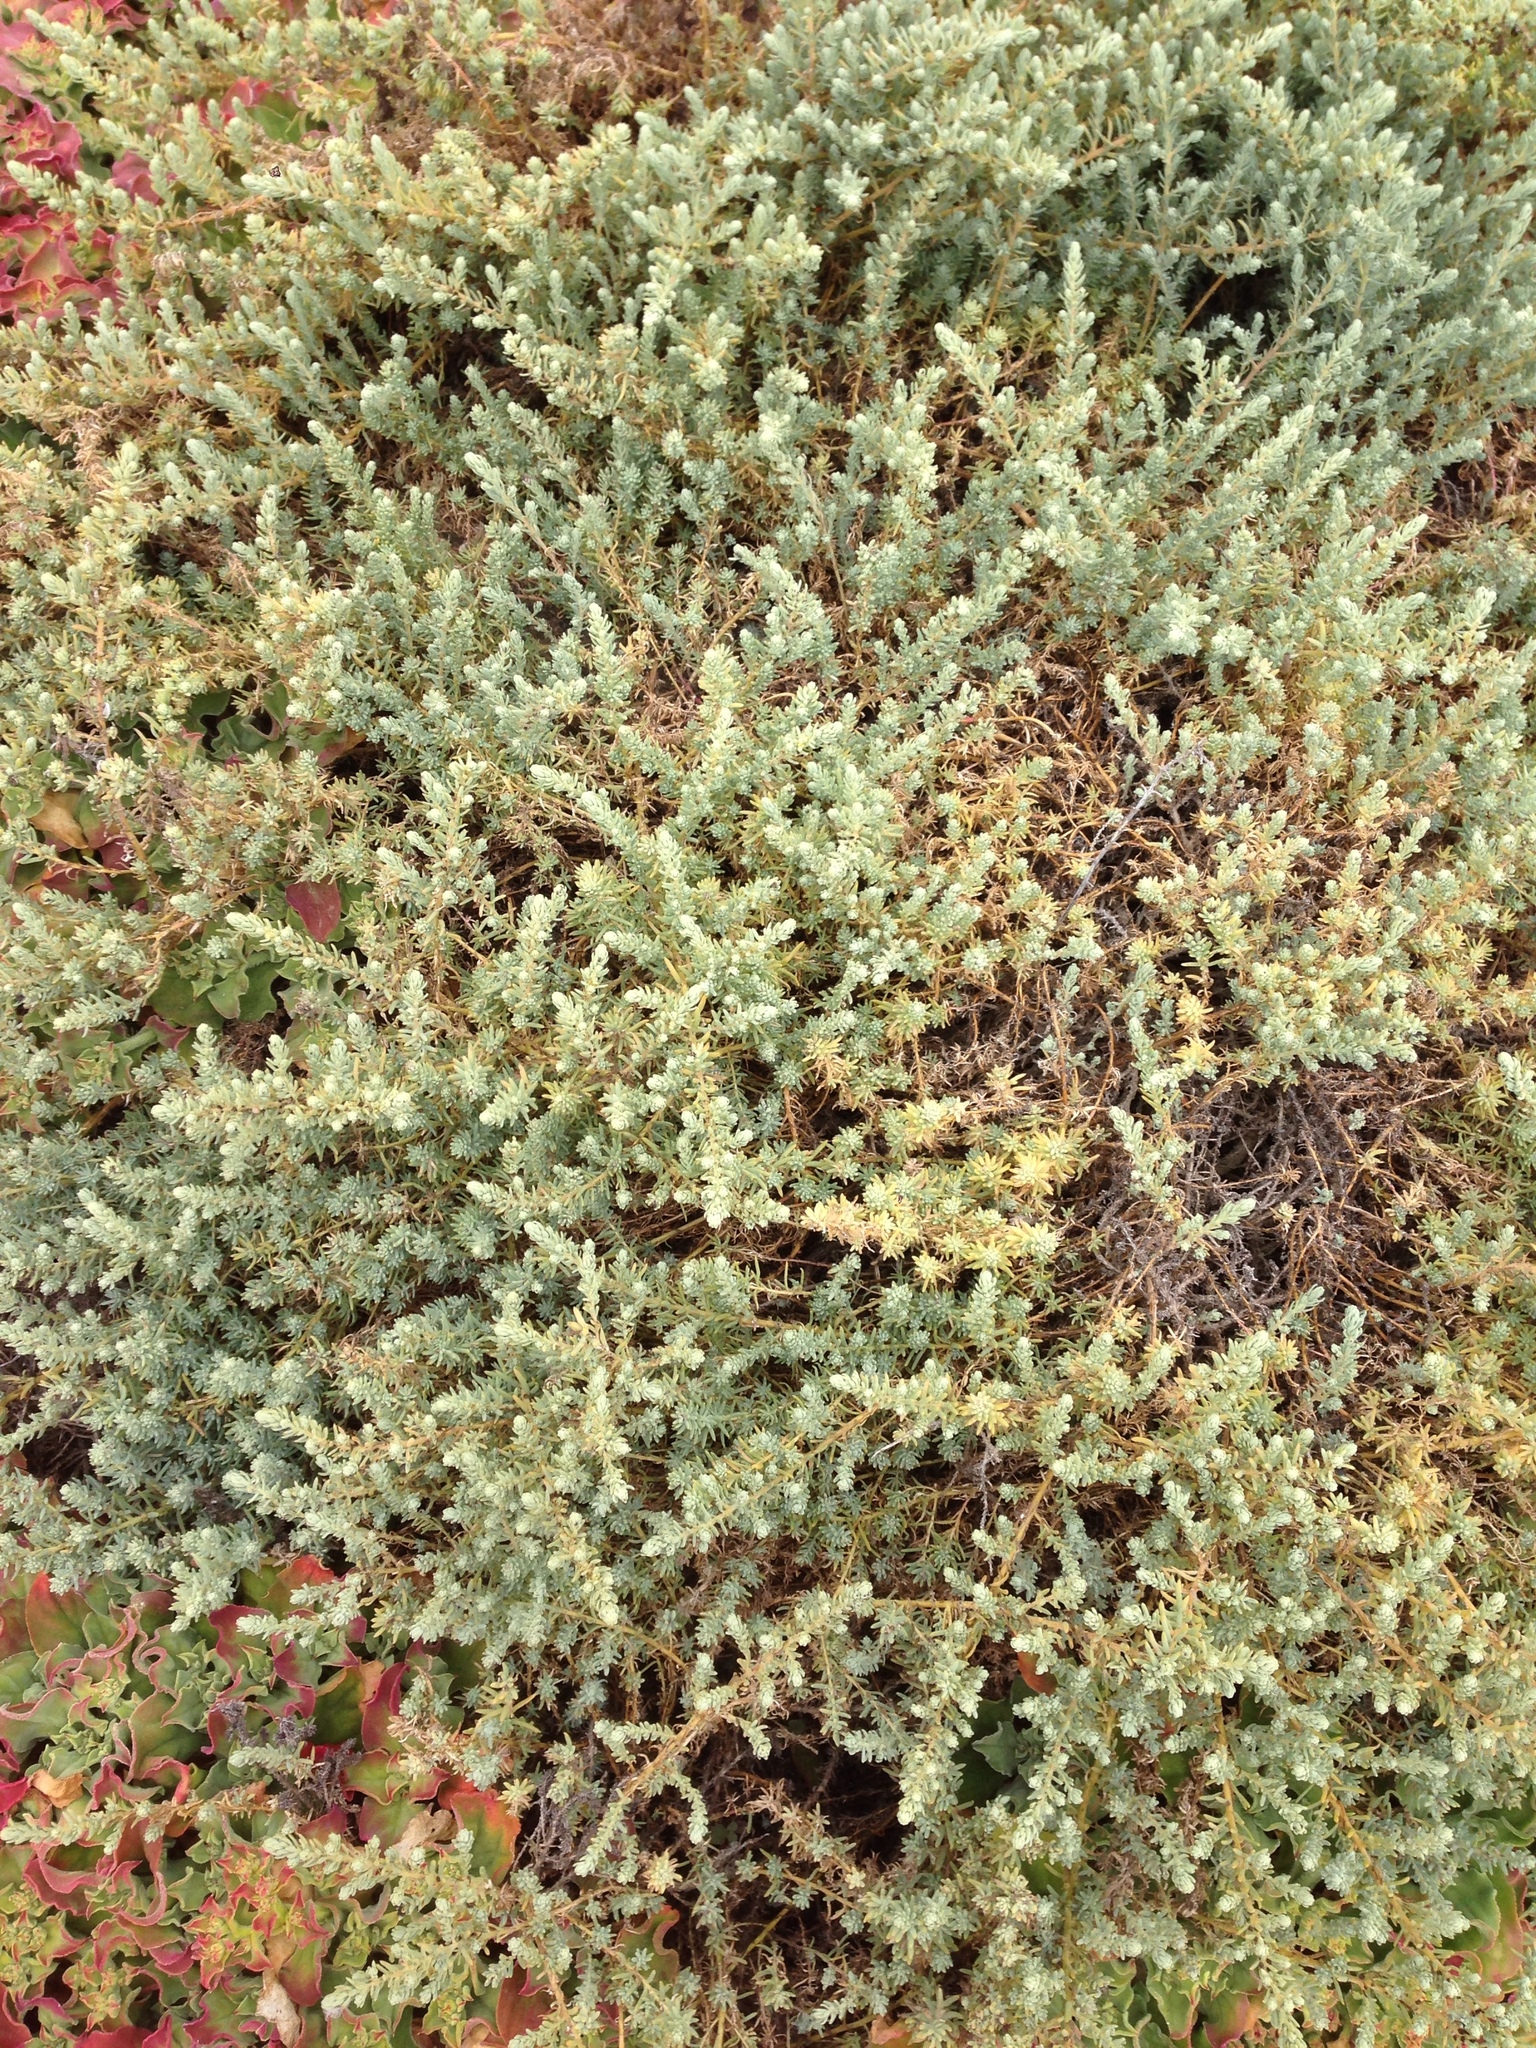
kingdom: Plantae
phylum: Tracheophyta
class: Magnoliopsida
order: Caryophyllales
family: Amaranthaceae
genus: Suaeda
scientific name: Suaeda taxifolia
